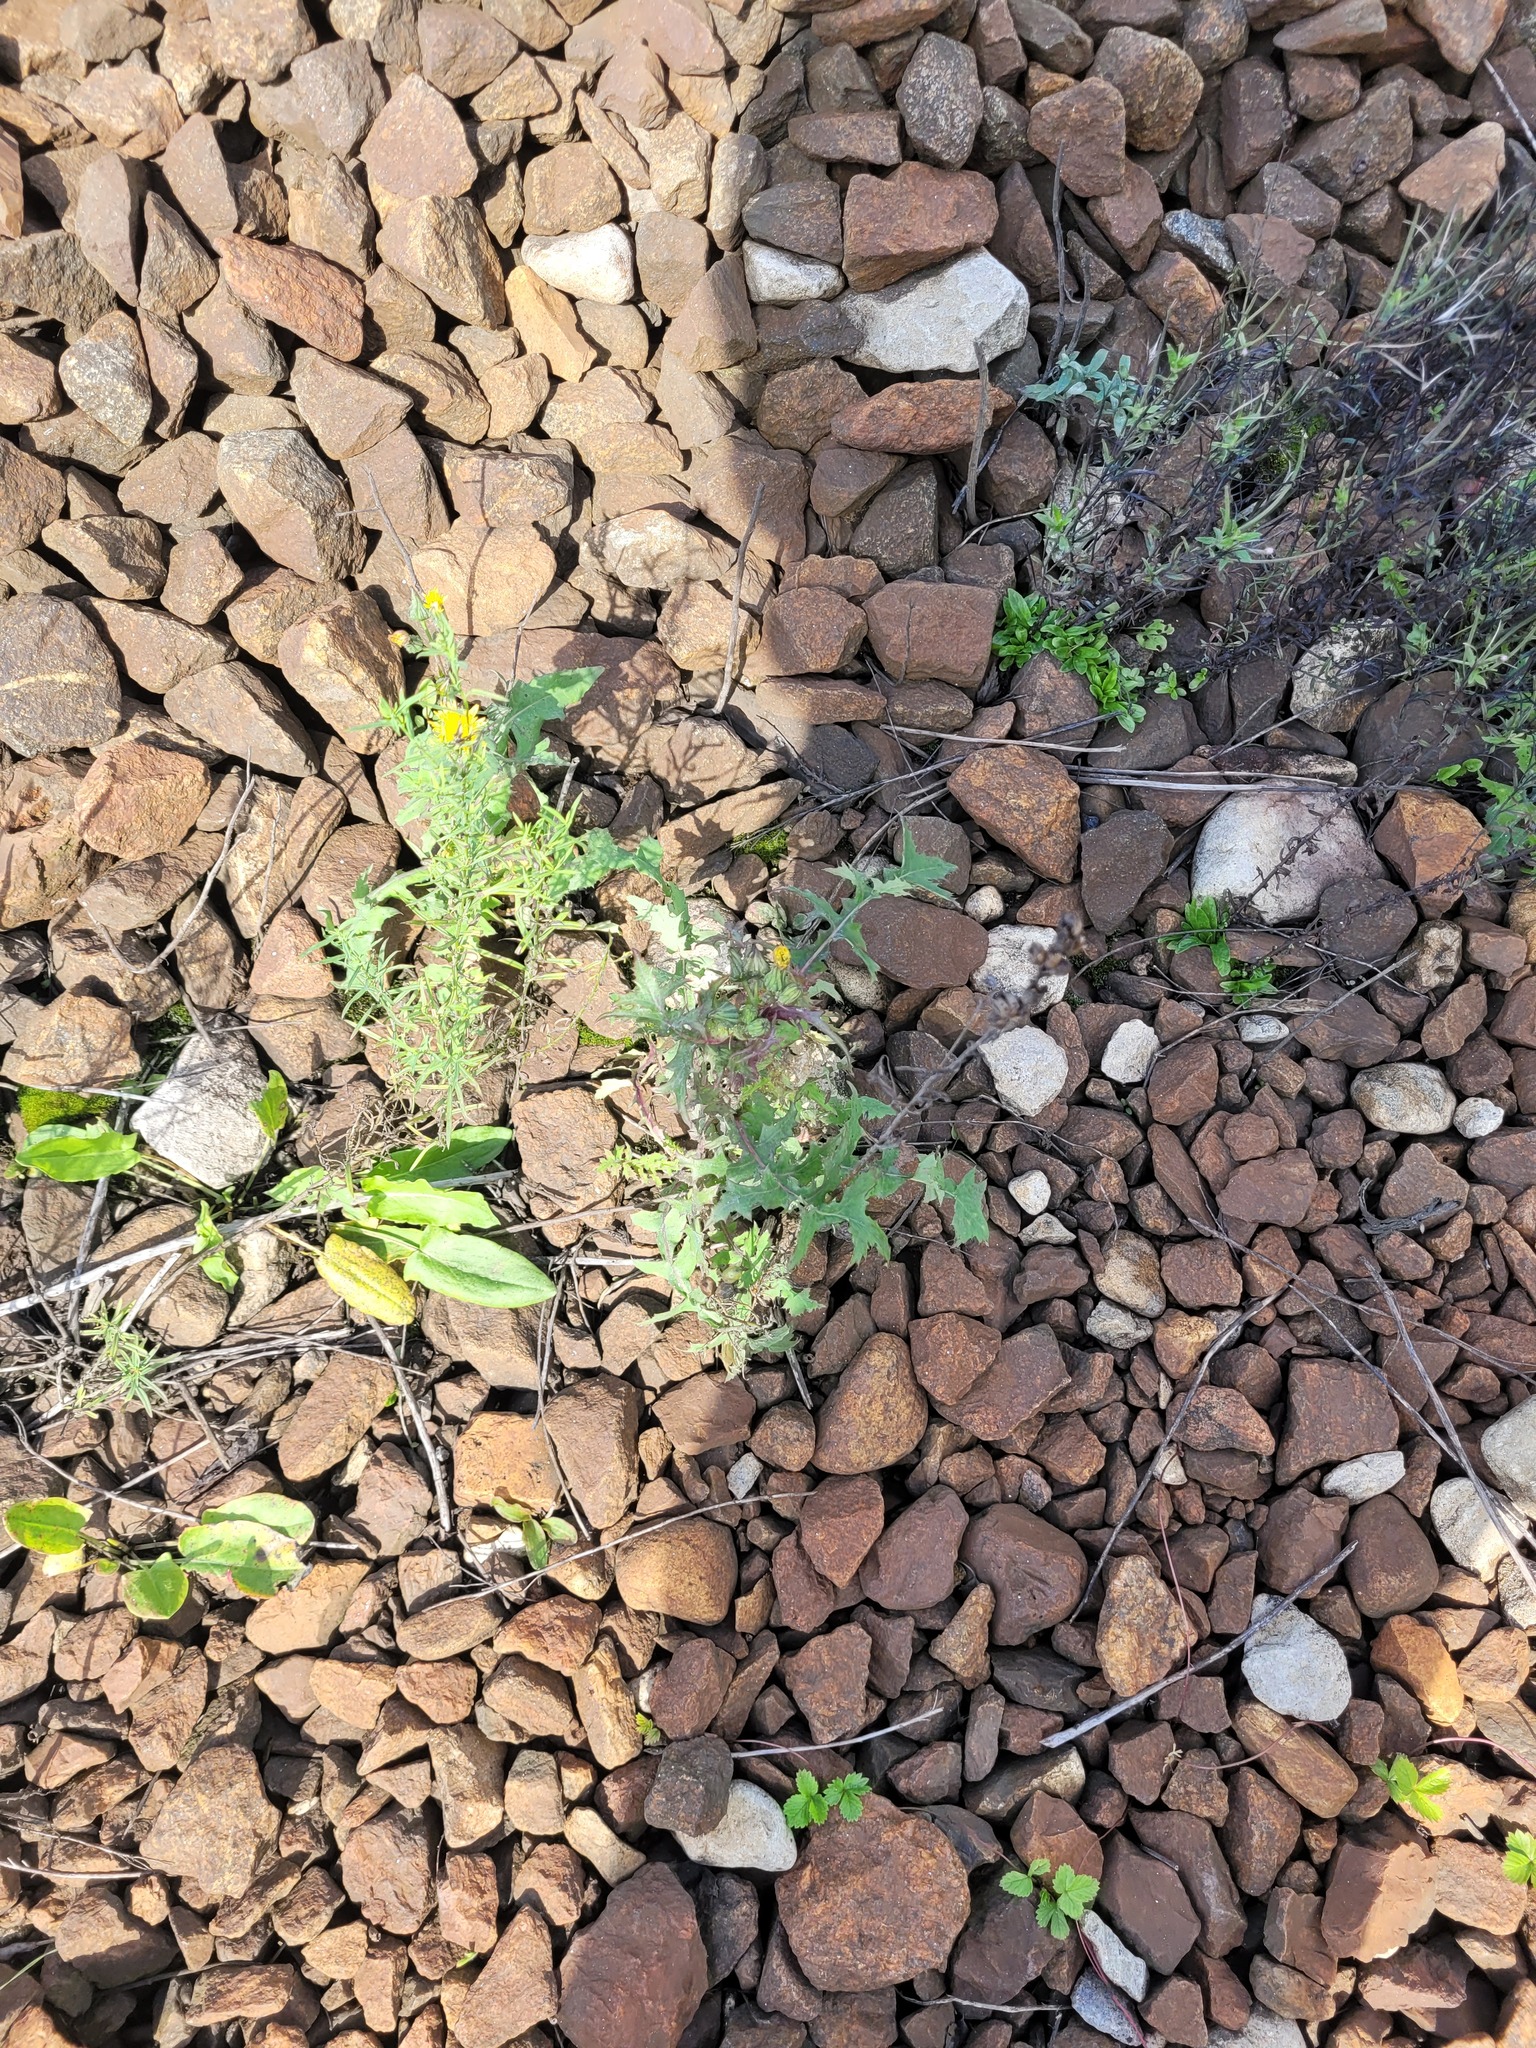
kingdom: Plantae
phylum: Tracheophyta
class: Magnoliopsida
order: Asterales
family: Asteraceae
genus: Sonchus
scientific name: Sonchus oleraceus
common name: Common sowthistle
